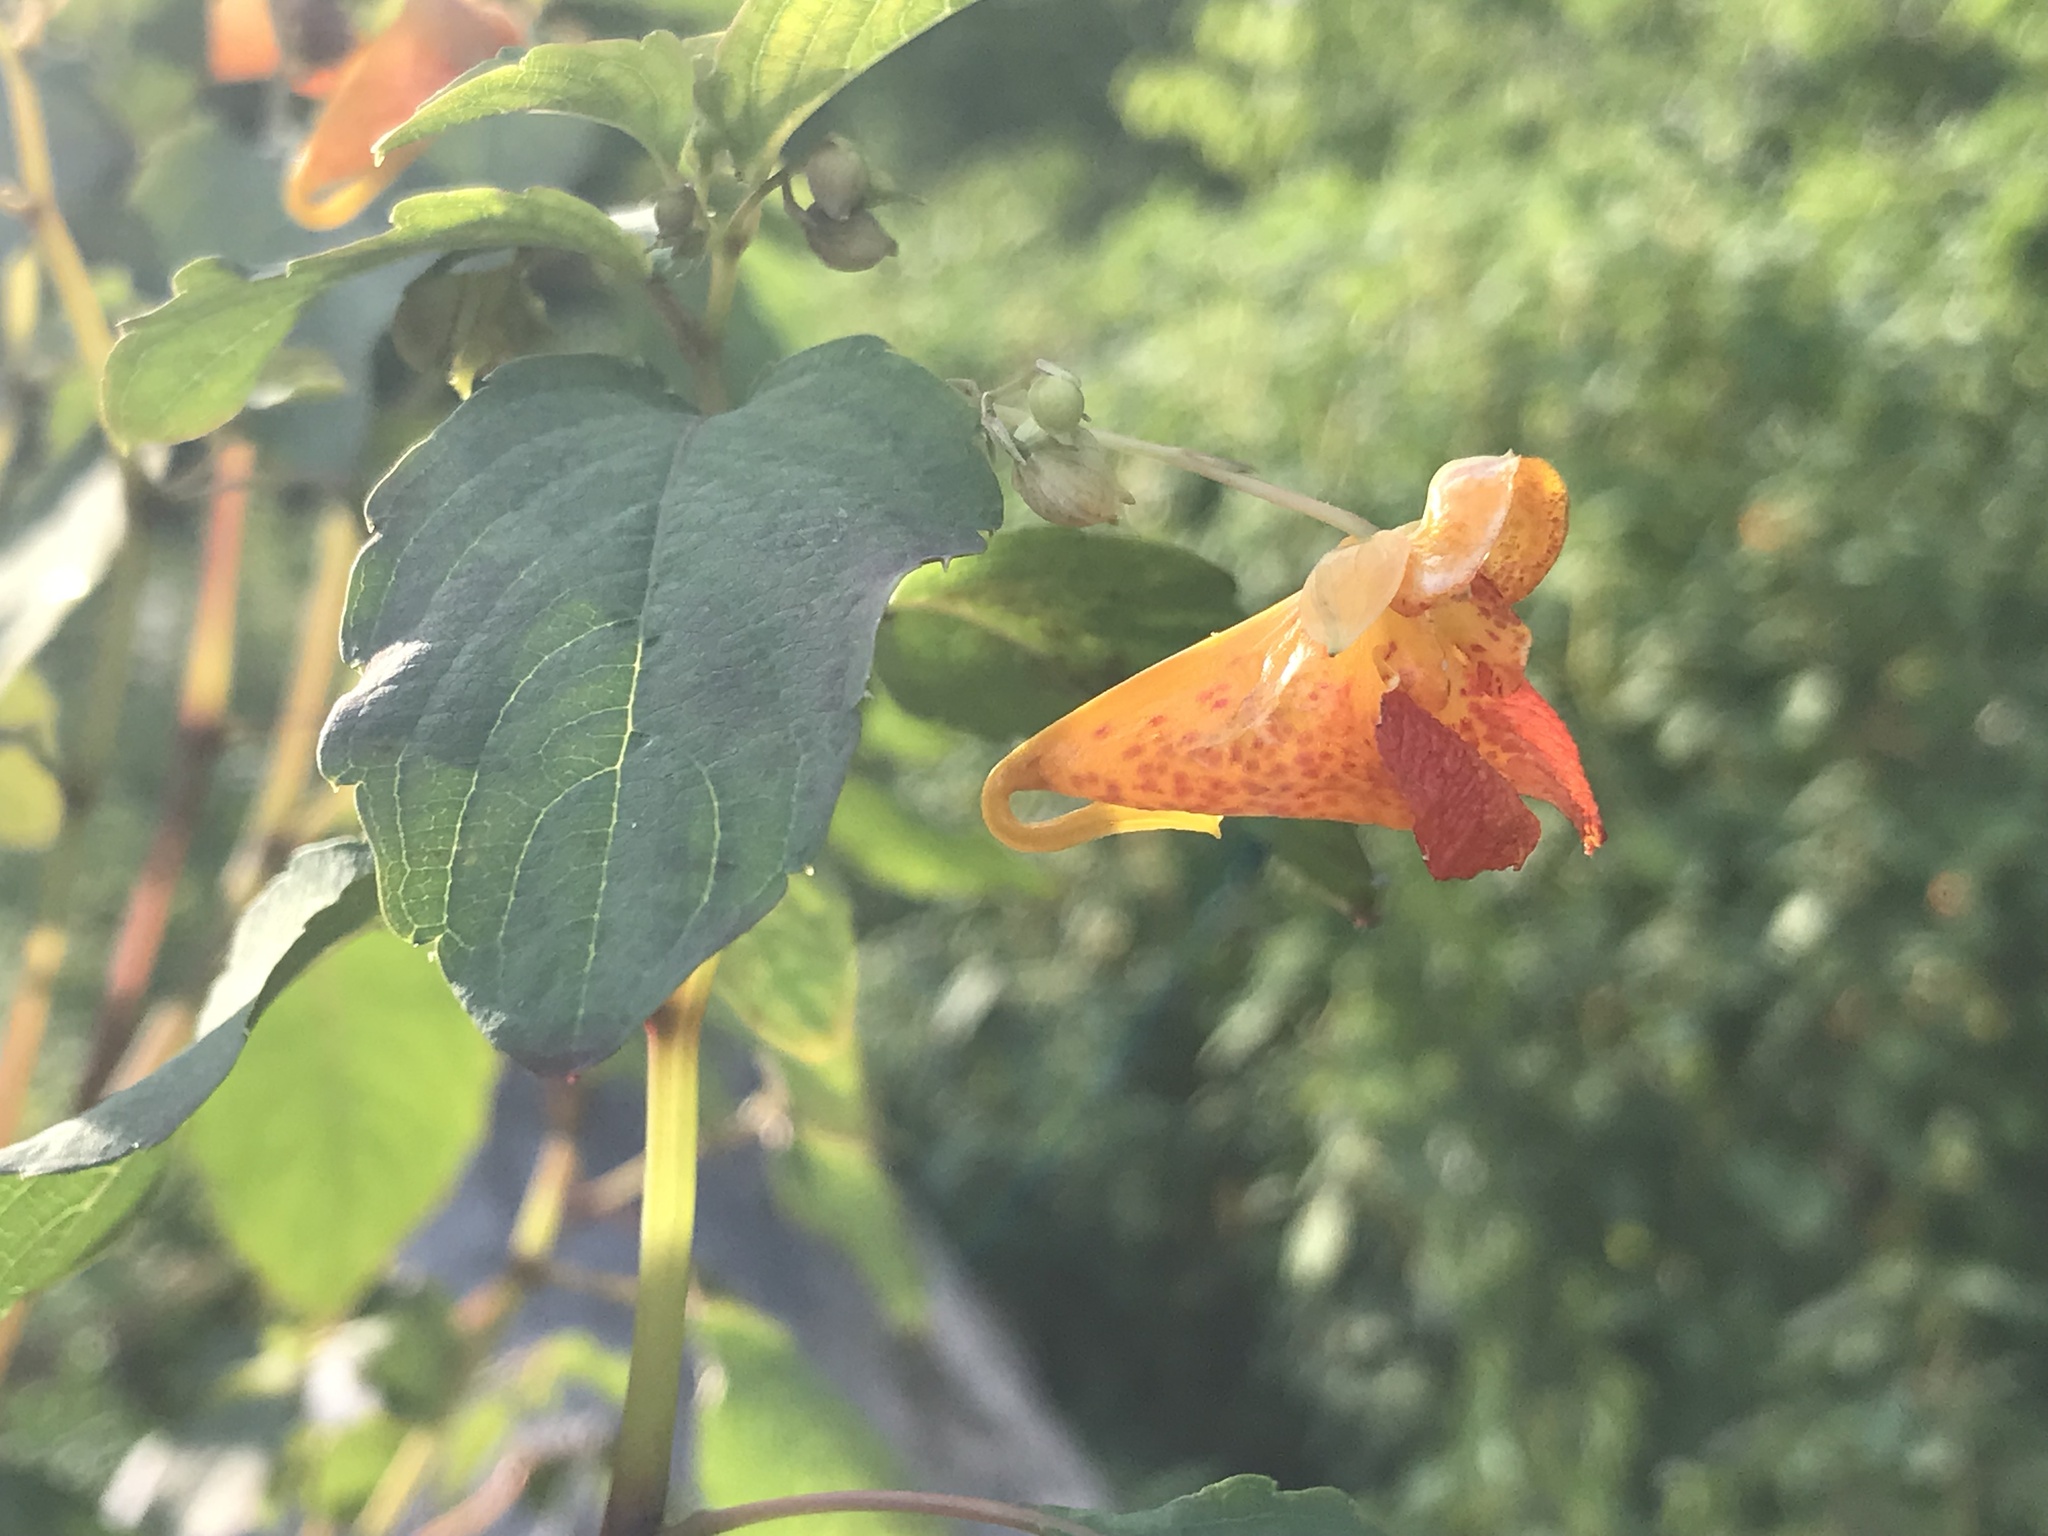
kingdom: Plantae
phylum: Tracheophyta
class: Magnoliopsida
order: Ericales
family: Balsaminaceae
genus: Impatiens
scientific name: Impatiens capensis
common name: Orange balsam
